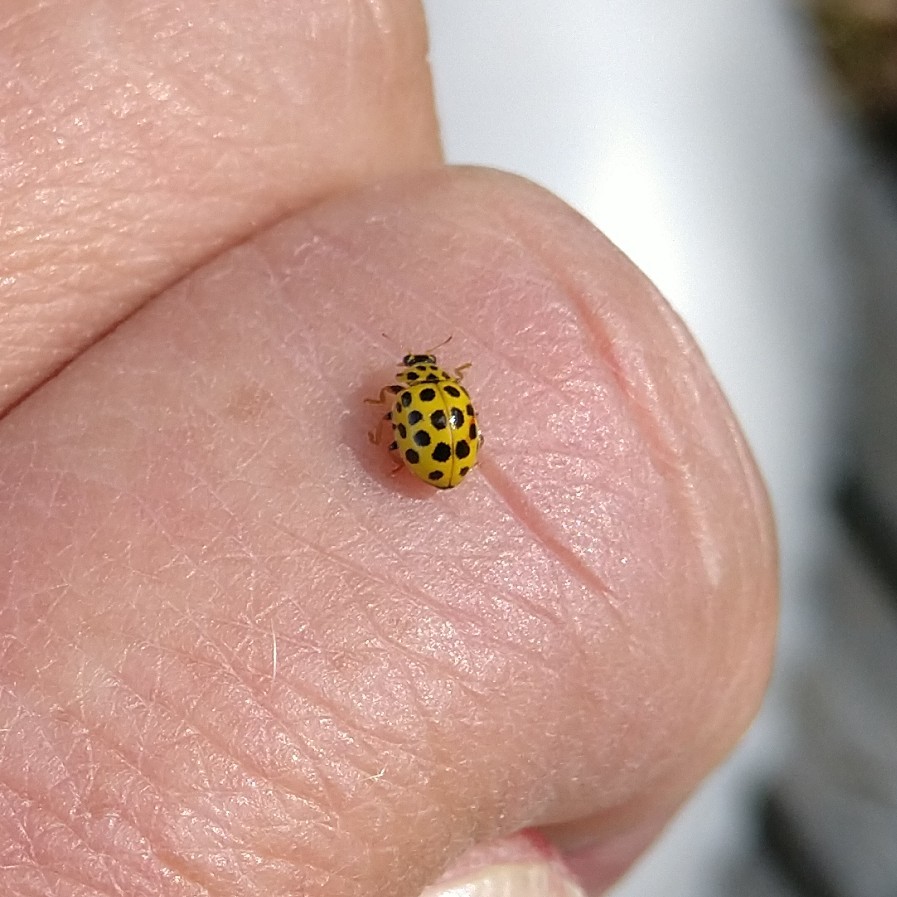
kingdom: Animalia
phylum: Arthropoda
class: Insecta
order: Coleoptera
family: Coccinellidae
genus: Psyllobora
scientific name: Psyllobora vigintiduopunctata
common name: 22-spot ladybird
